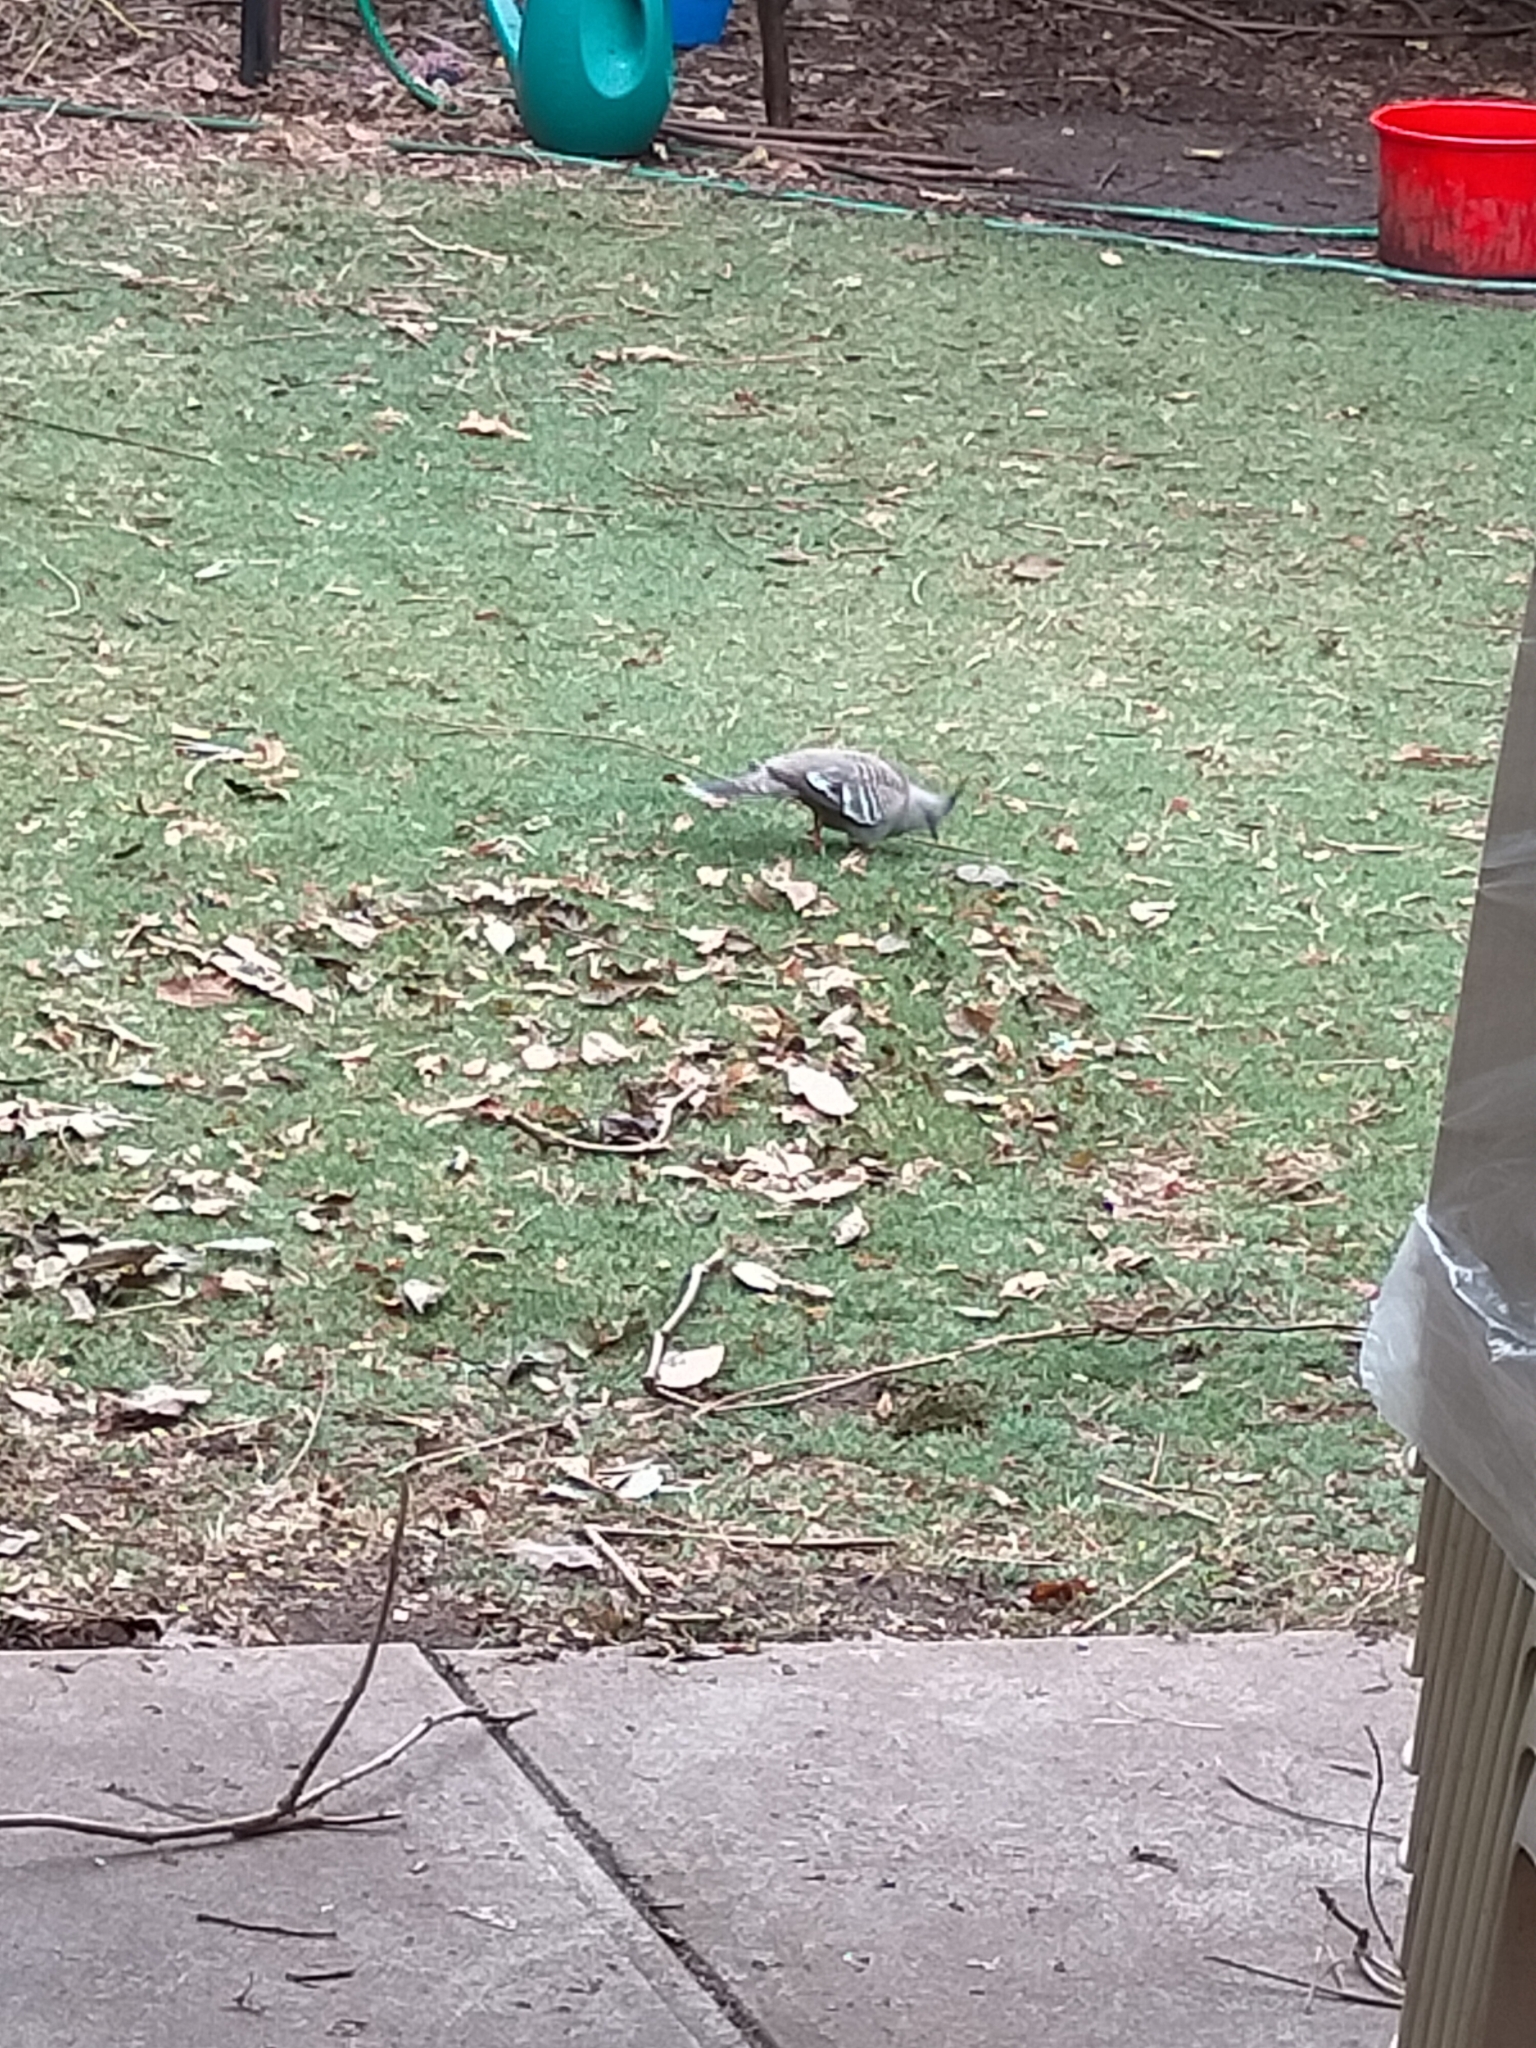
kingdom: Animalia
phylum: Chordata
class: Aves
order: Columbiformes
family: Columbidae
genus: Ocyphaps
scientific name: Ocyphaps lophotes
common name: Crested pigeon
